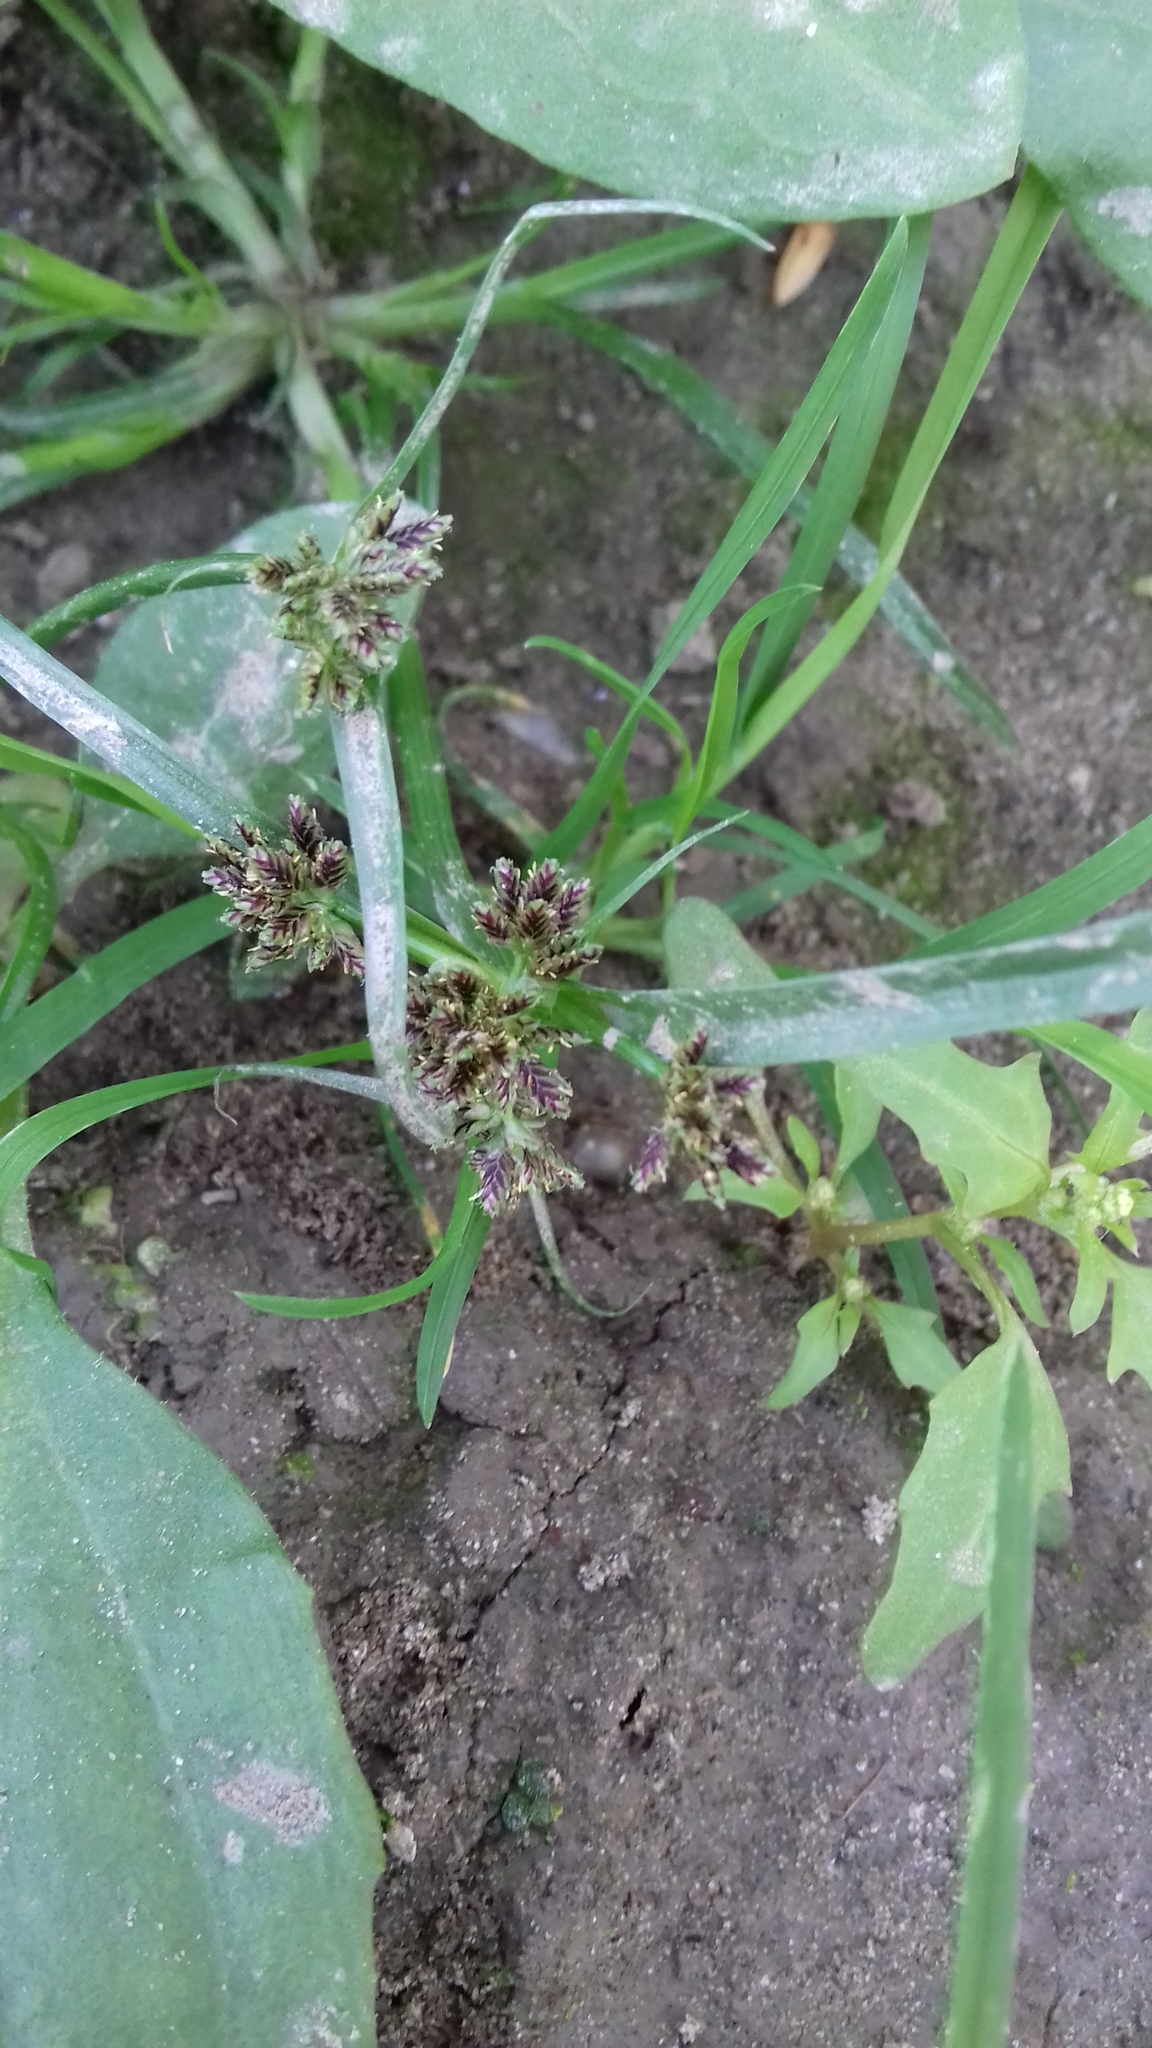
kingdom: Plantae
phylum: Tracheophyta
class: Liliopsida
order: Poales
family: Cyperaceae
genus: Cyperus
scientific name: Cyperus fuscus
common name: Brown galingale
